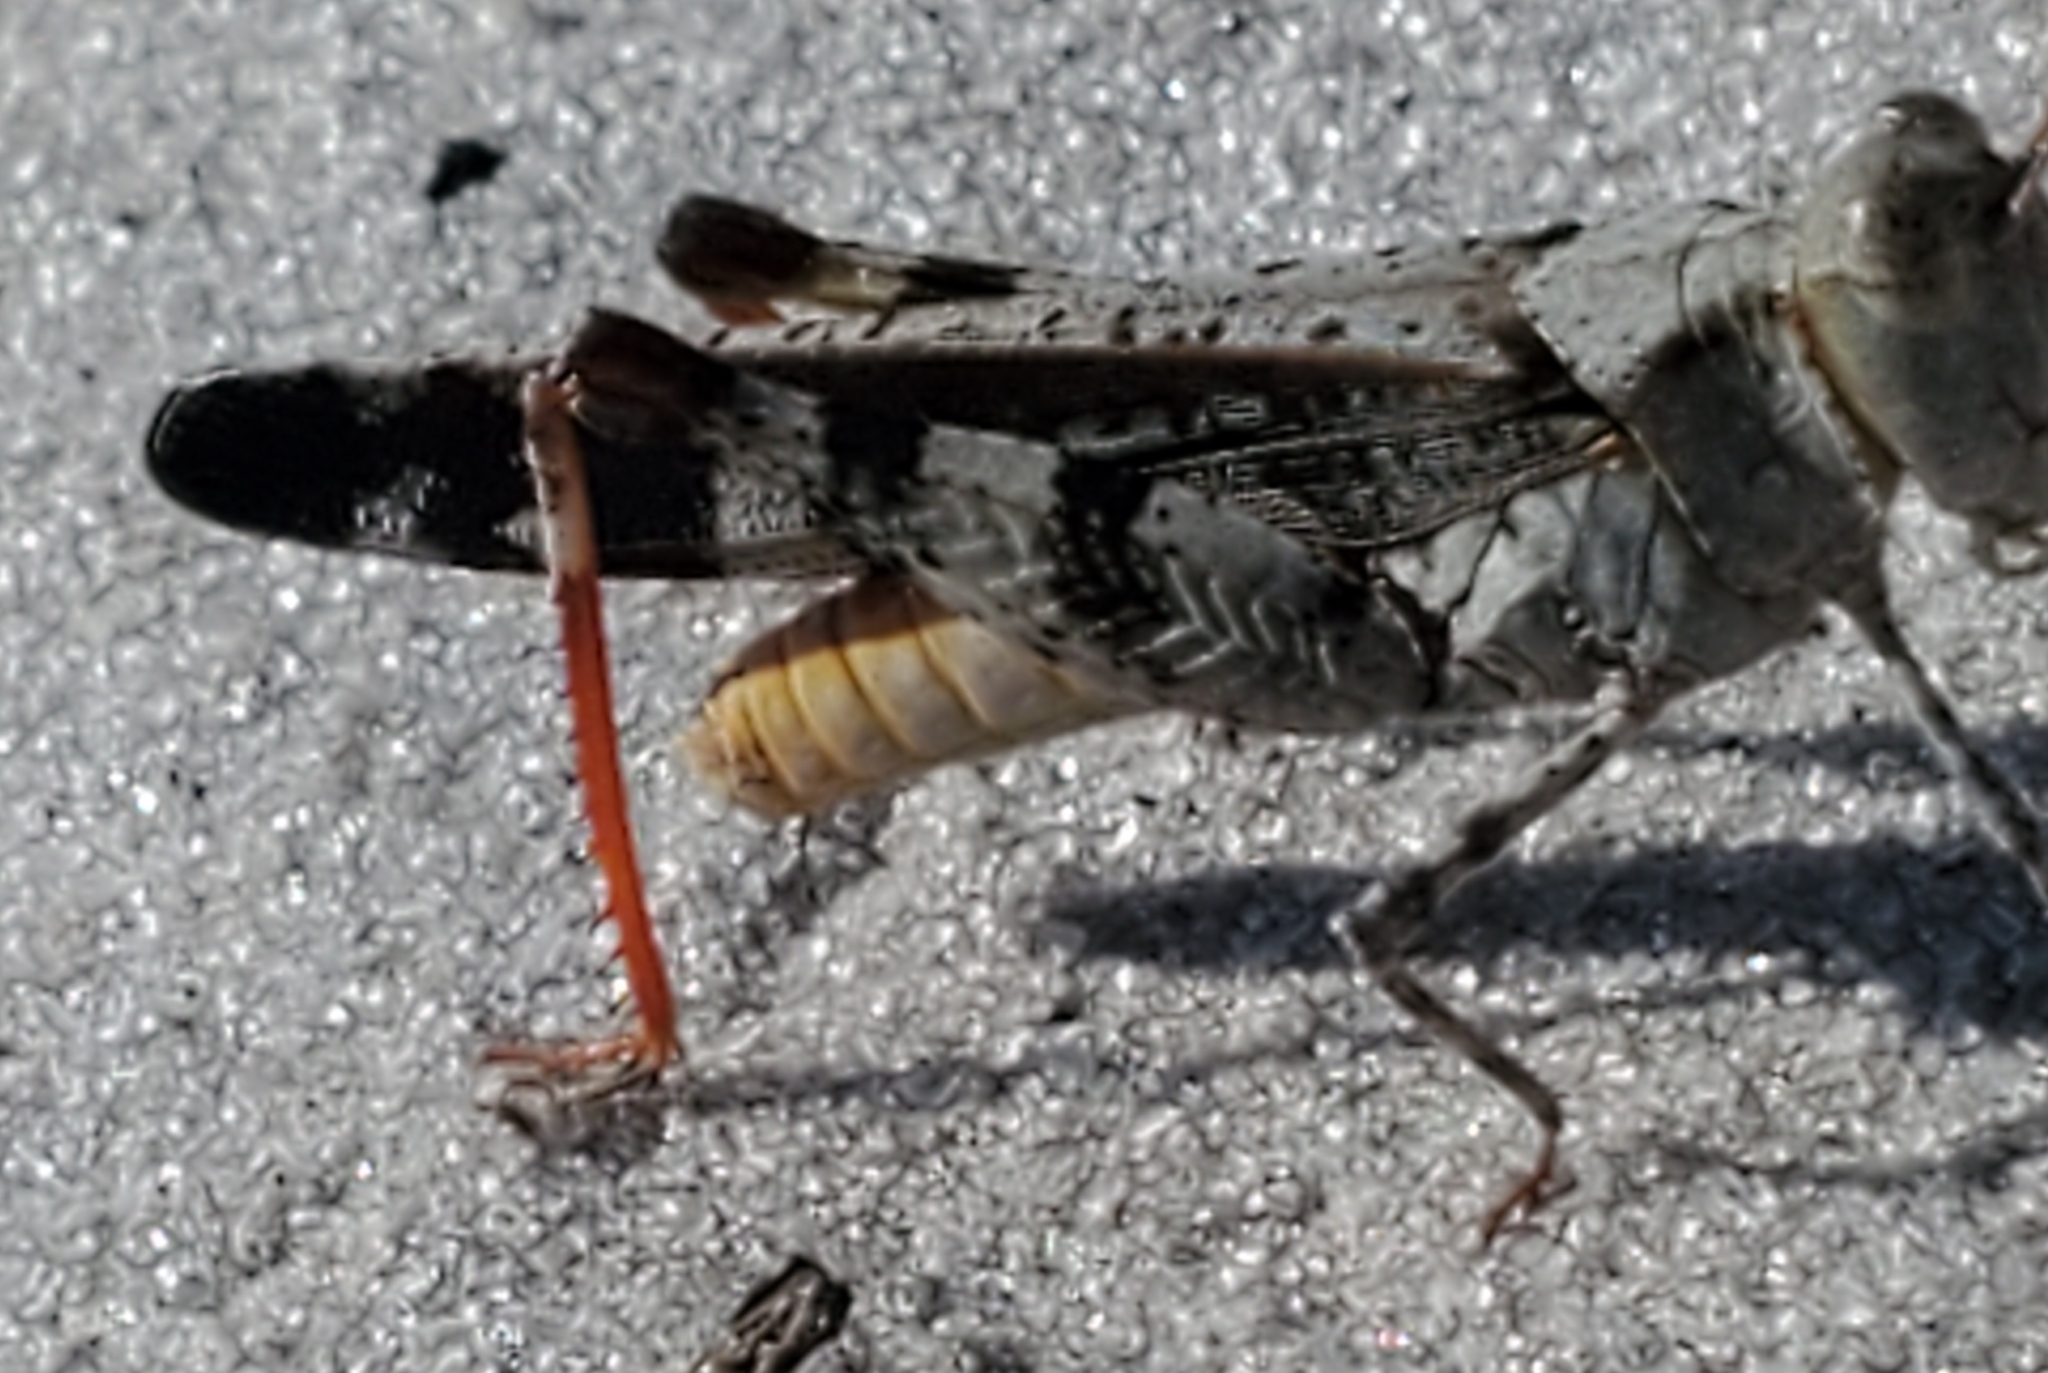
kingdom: Animalia
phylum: Arthropoda
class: Insecta
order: Orthoptera
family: Acrididae
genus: Spharagemon
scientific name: Spharagemon marmoratum
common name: Marbled grasshopper
